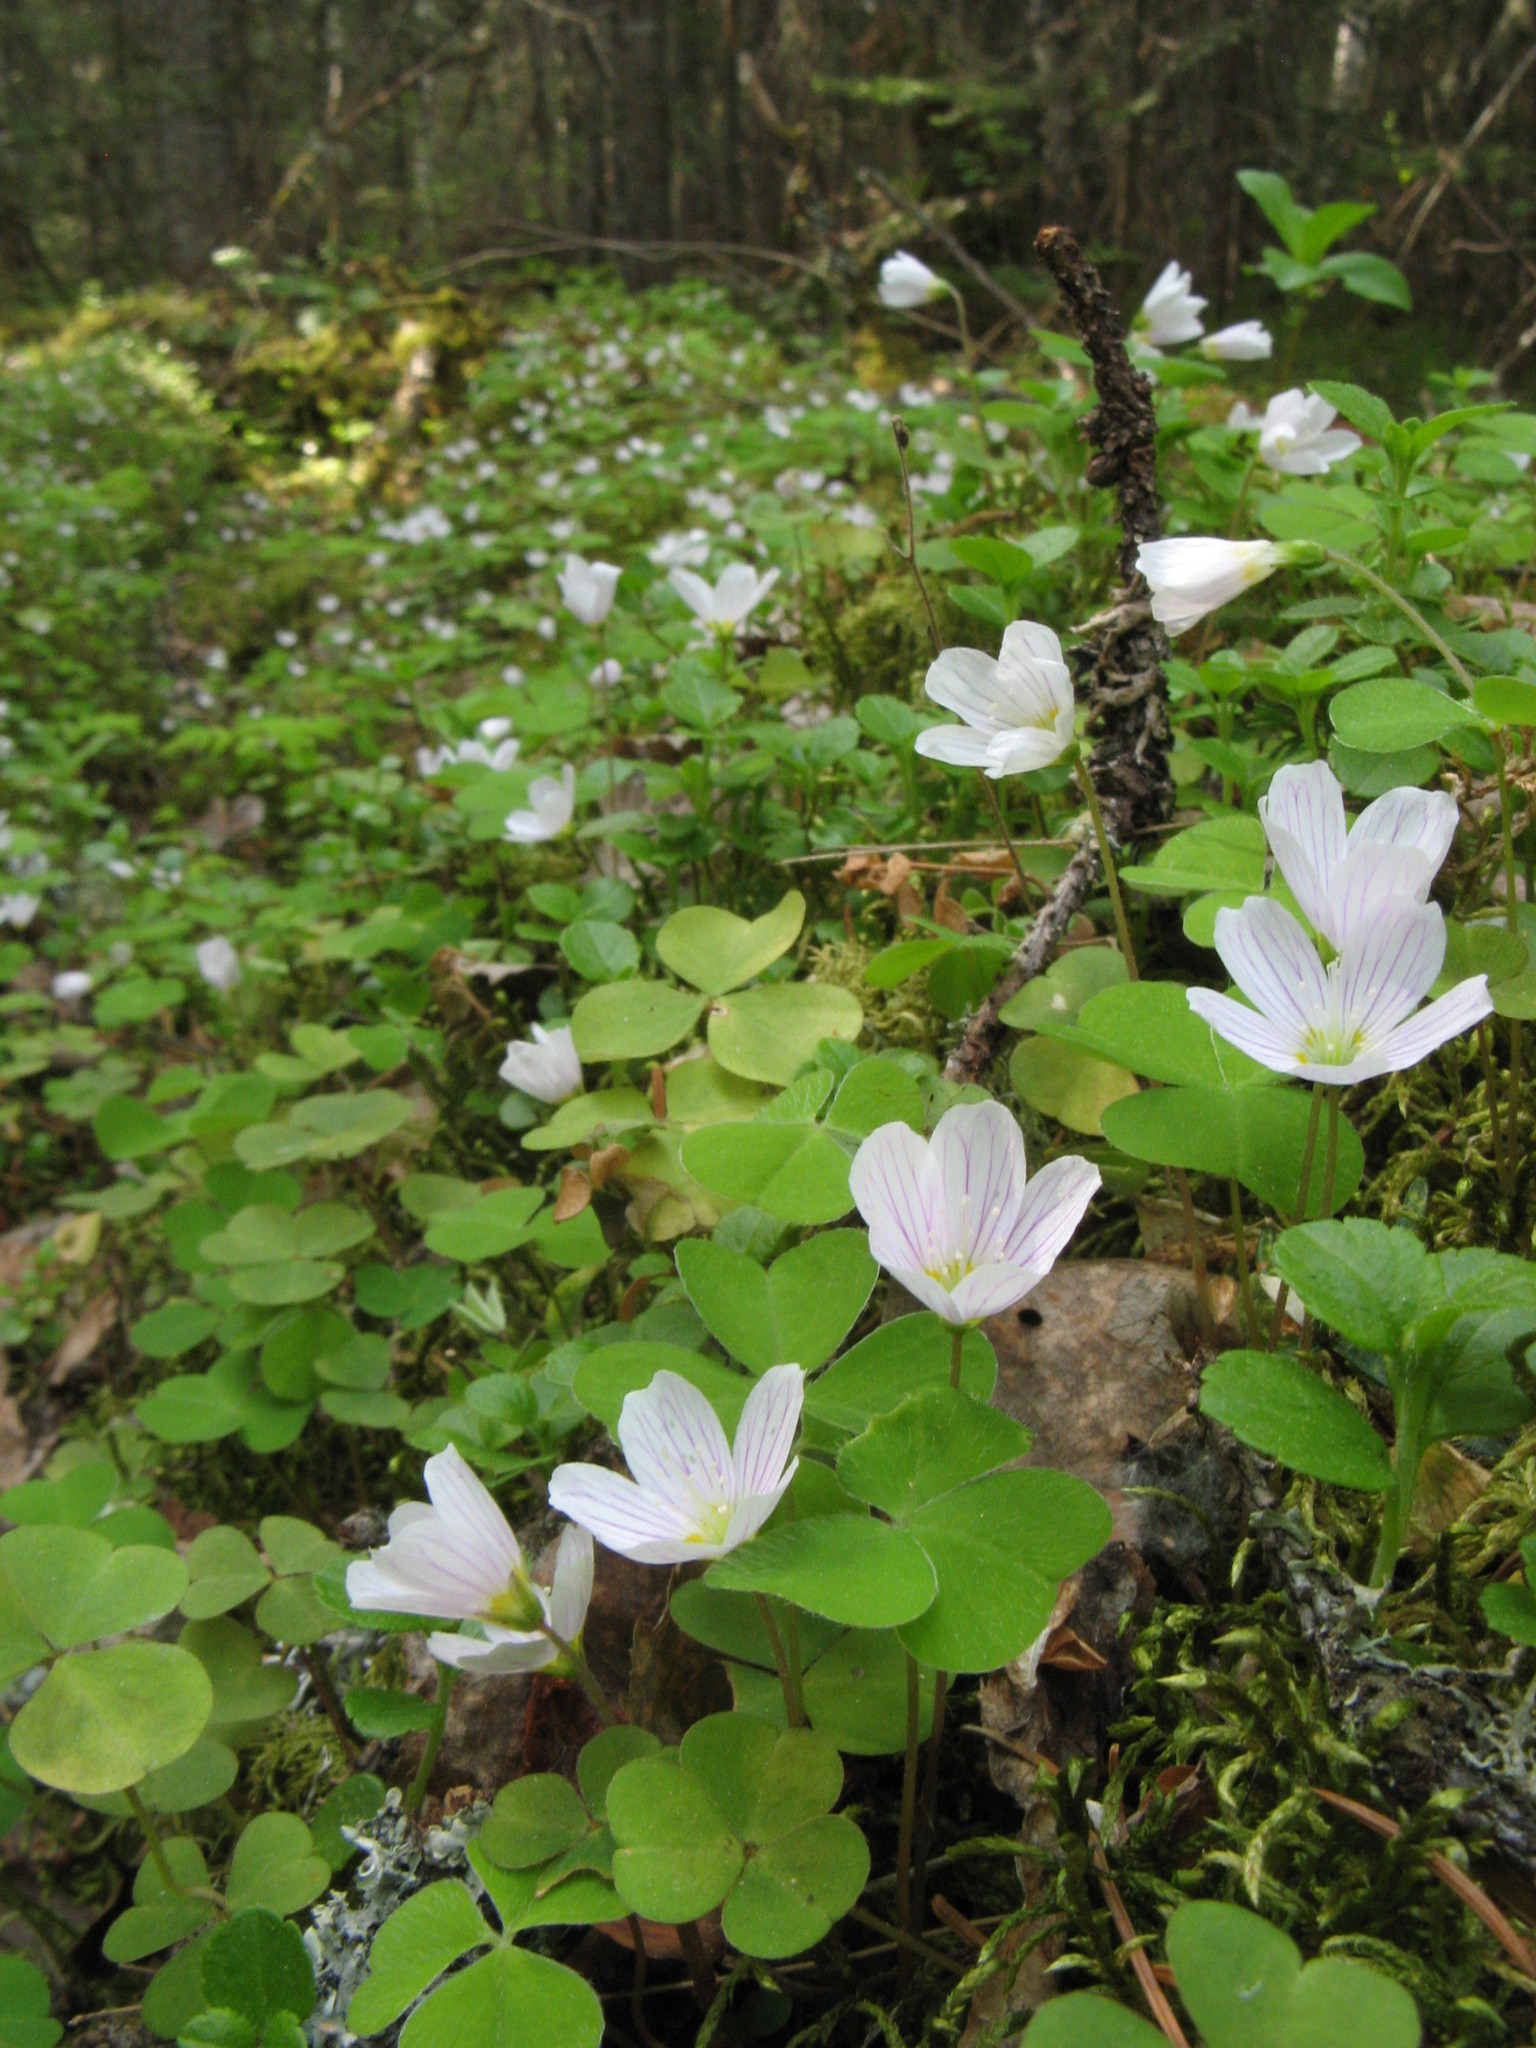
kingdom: Plantae
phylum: Tracheophyta
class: Magnoliopsida
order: Oxalidales
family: Oxalidaceae
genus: Oxalis
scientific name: Oxalis acetosella
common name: Wood-sorrel
